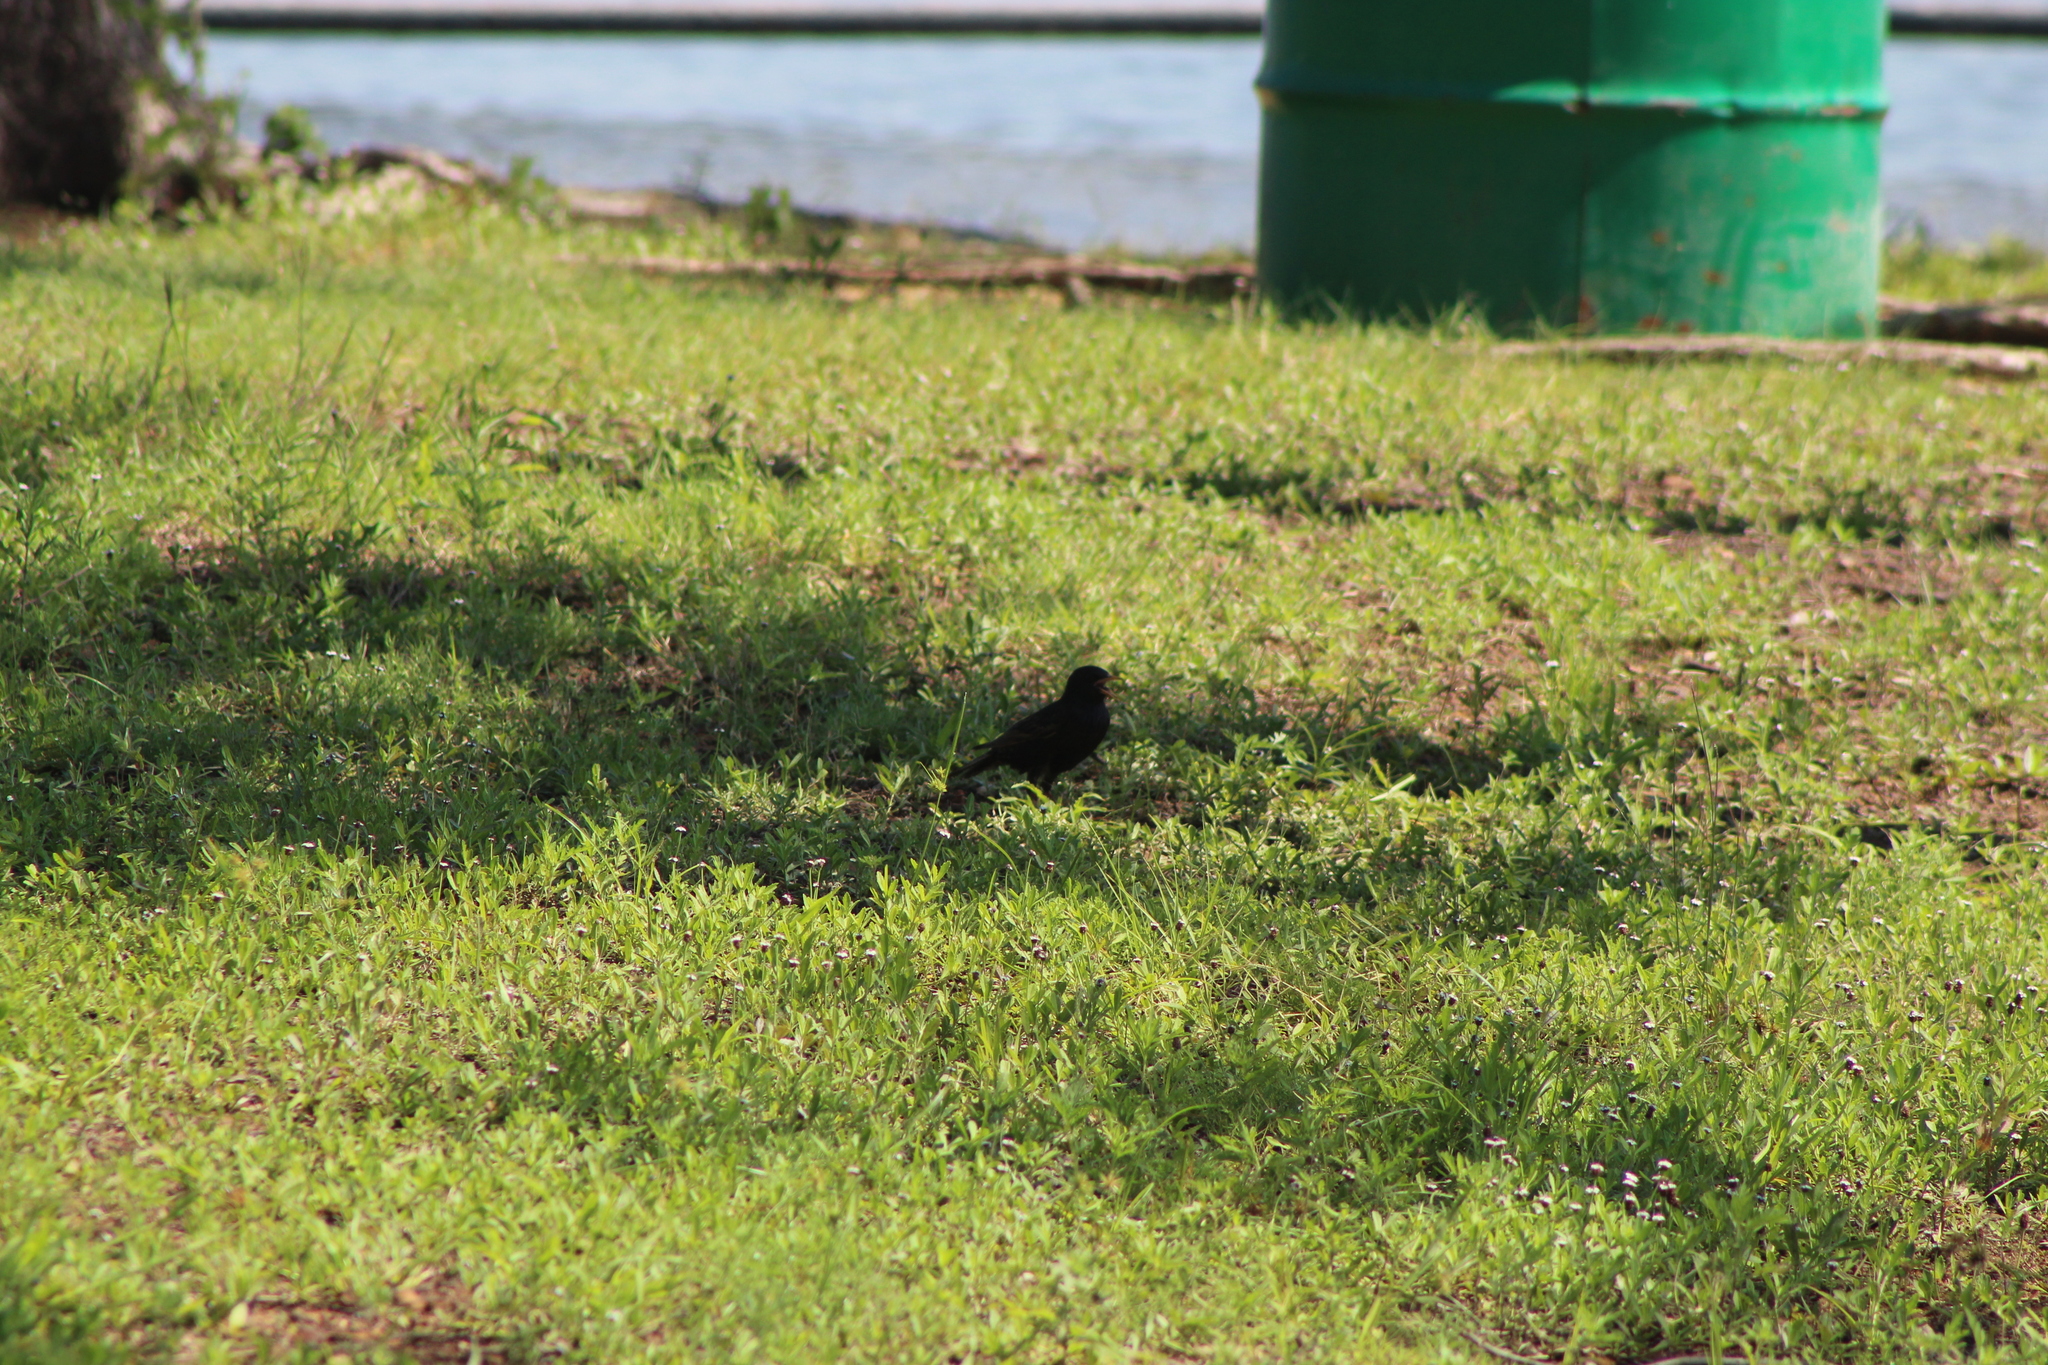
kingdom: Animalia
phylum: Chordata
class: Aves
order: Passeriformes
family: Sturnidae
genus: Sturnus
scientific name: Sturnus vulgaris
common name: Common starling
